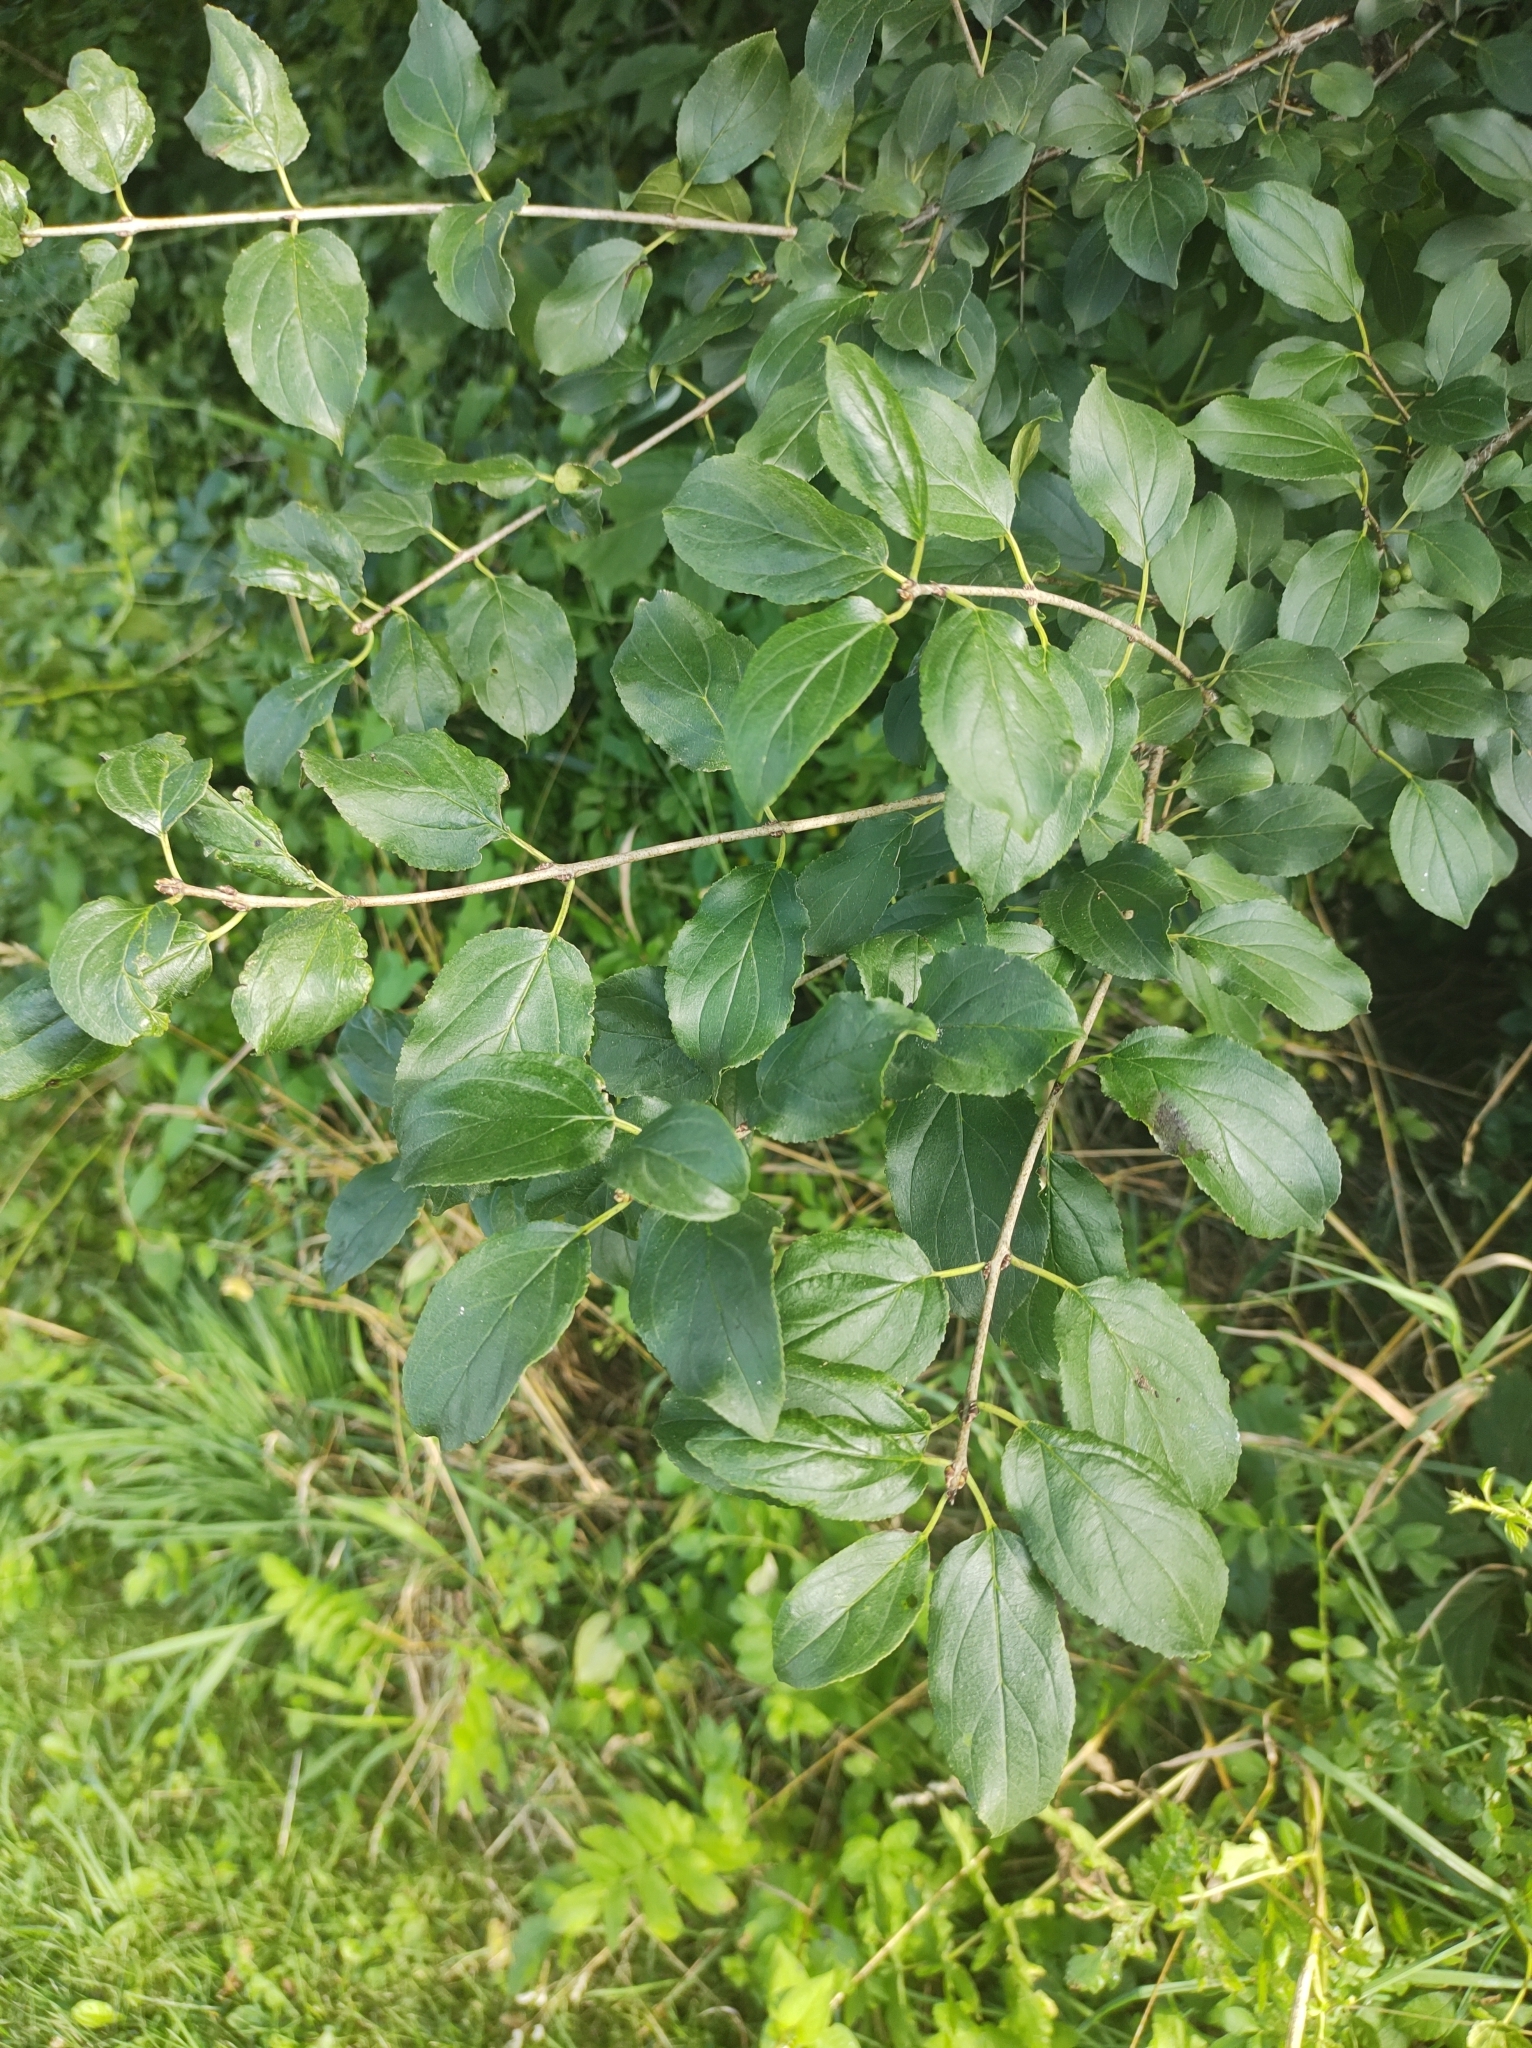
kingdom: Plantae
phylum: Tracheophyta
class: Magnoliopsida
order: Rosales
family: Rhamnaceae
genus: Rhamnus
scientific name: Rhamnus cathartica
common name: Common buckthorn
